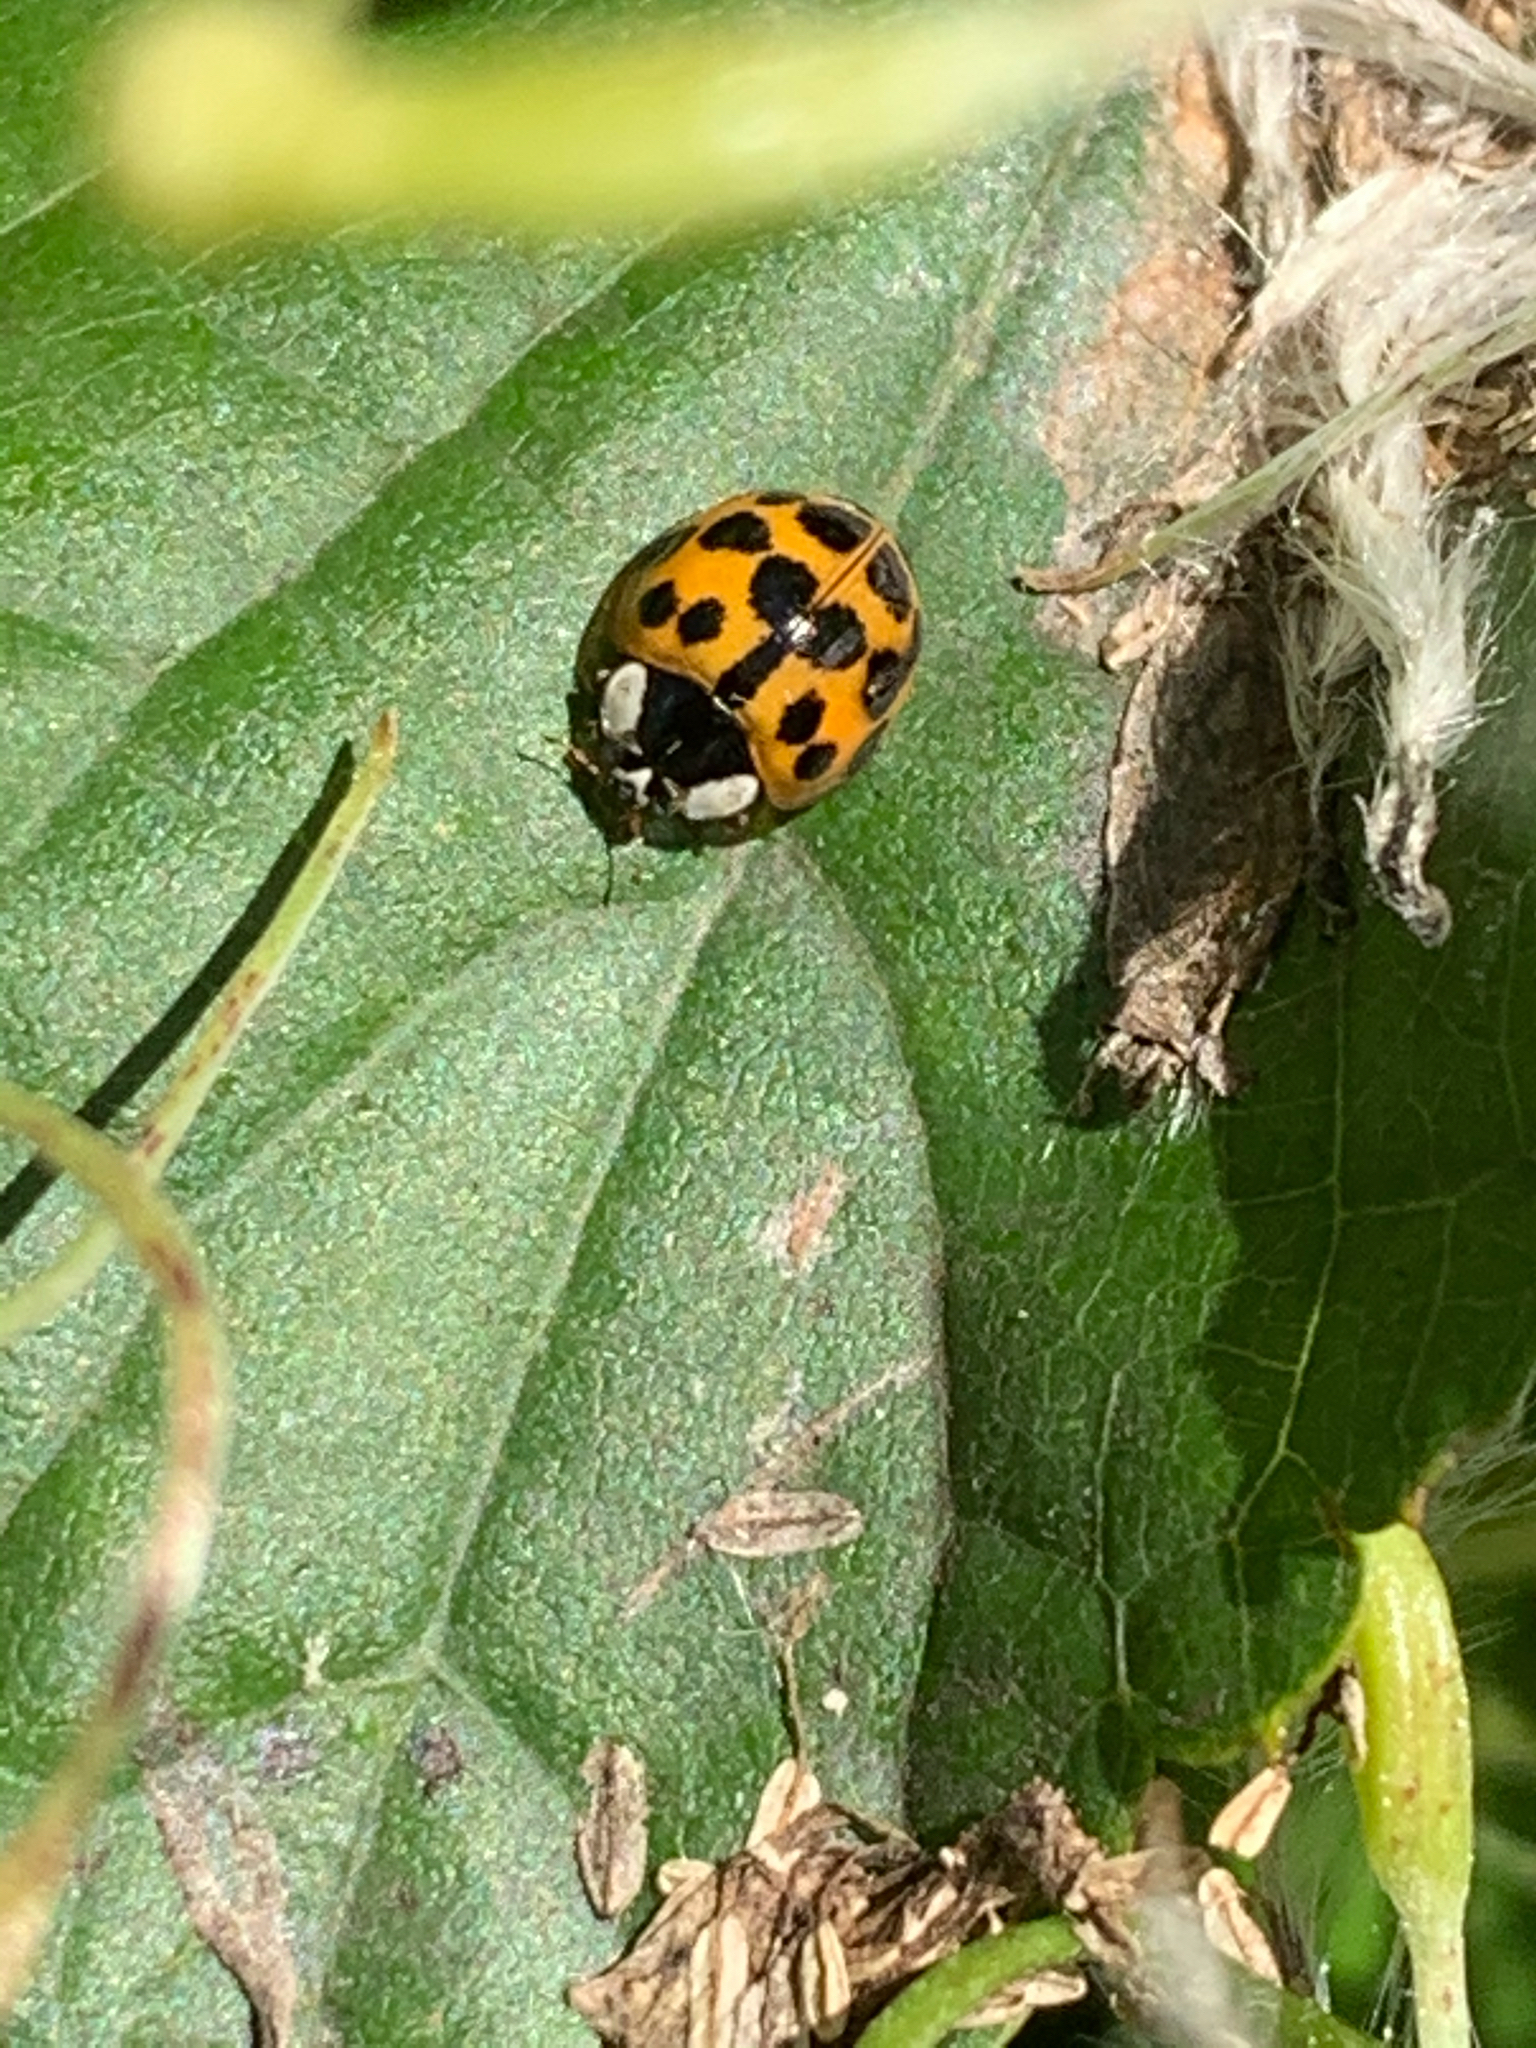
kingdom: Animalia
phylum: Arthropoda
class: Insecta
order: Coleoptera
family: Coccinellidae
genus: Harmonia
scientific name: Harmonia axyridis
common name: Harlequin ladybird
